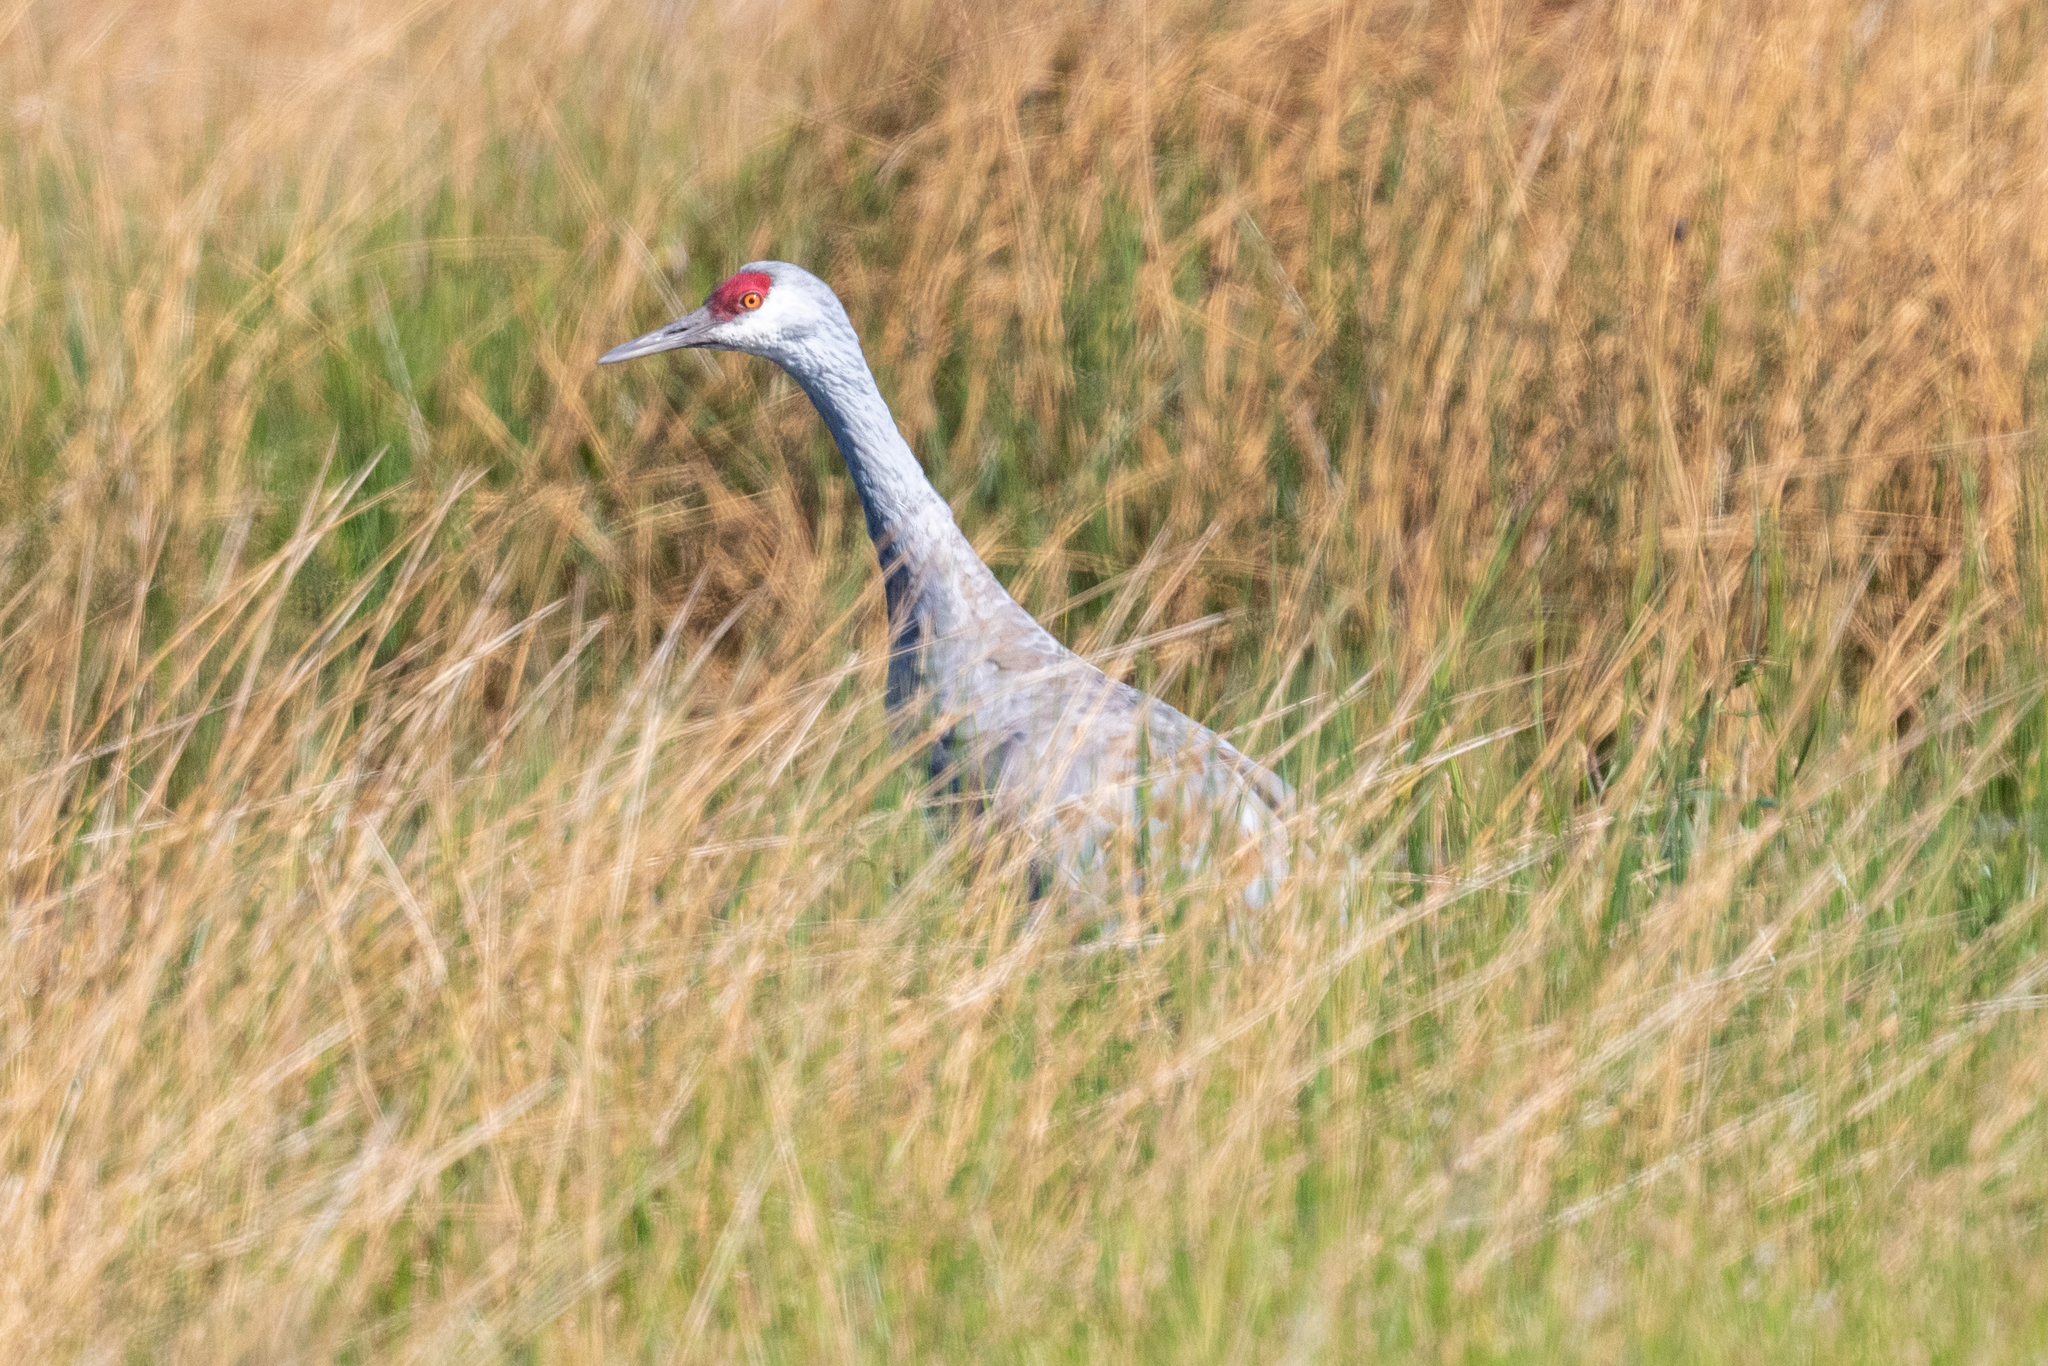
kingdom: Animalia
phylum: Chordata
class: Aves
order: Gruiformes
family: Gruidae
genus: Grus
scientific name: Grus canadensis
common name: Sandhill crane
